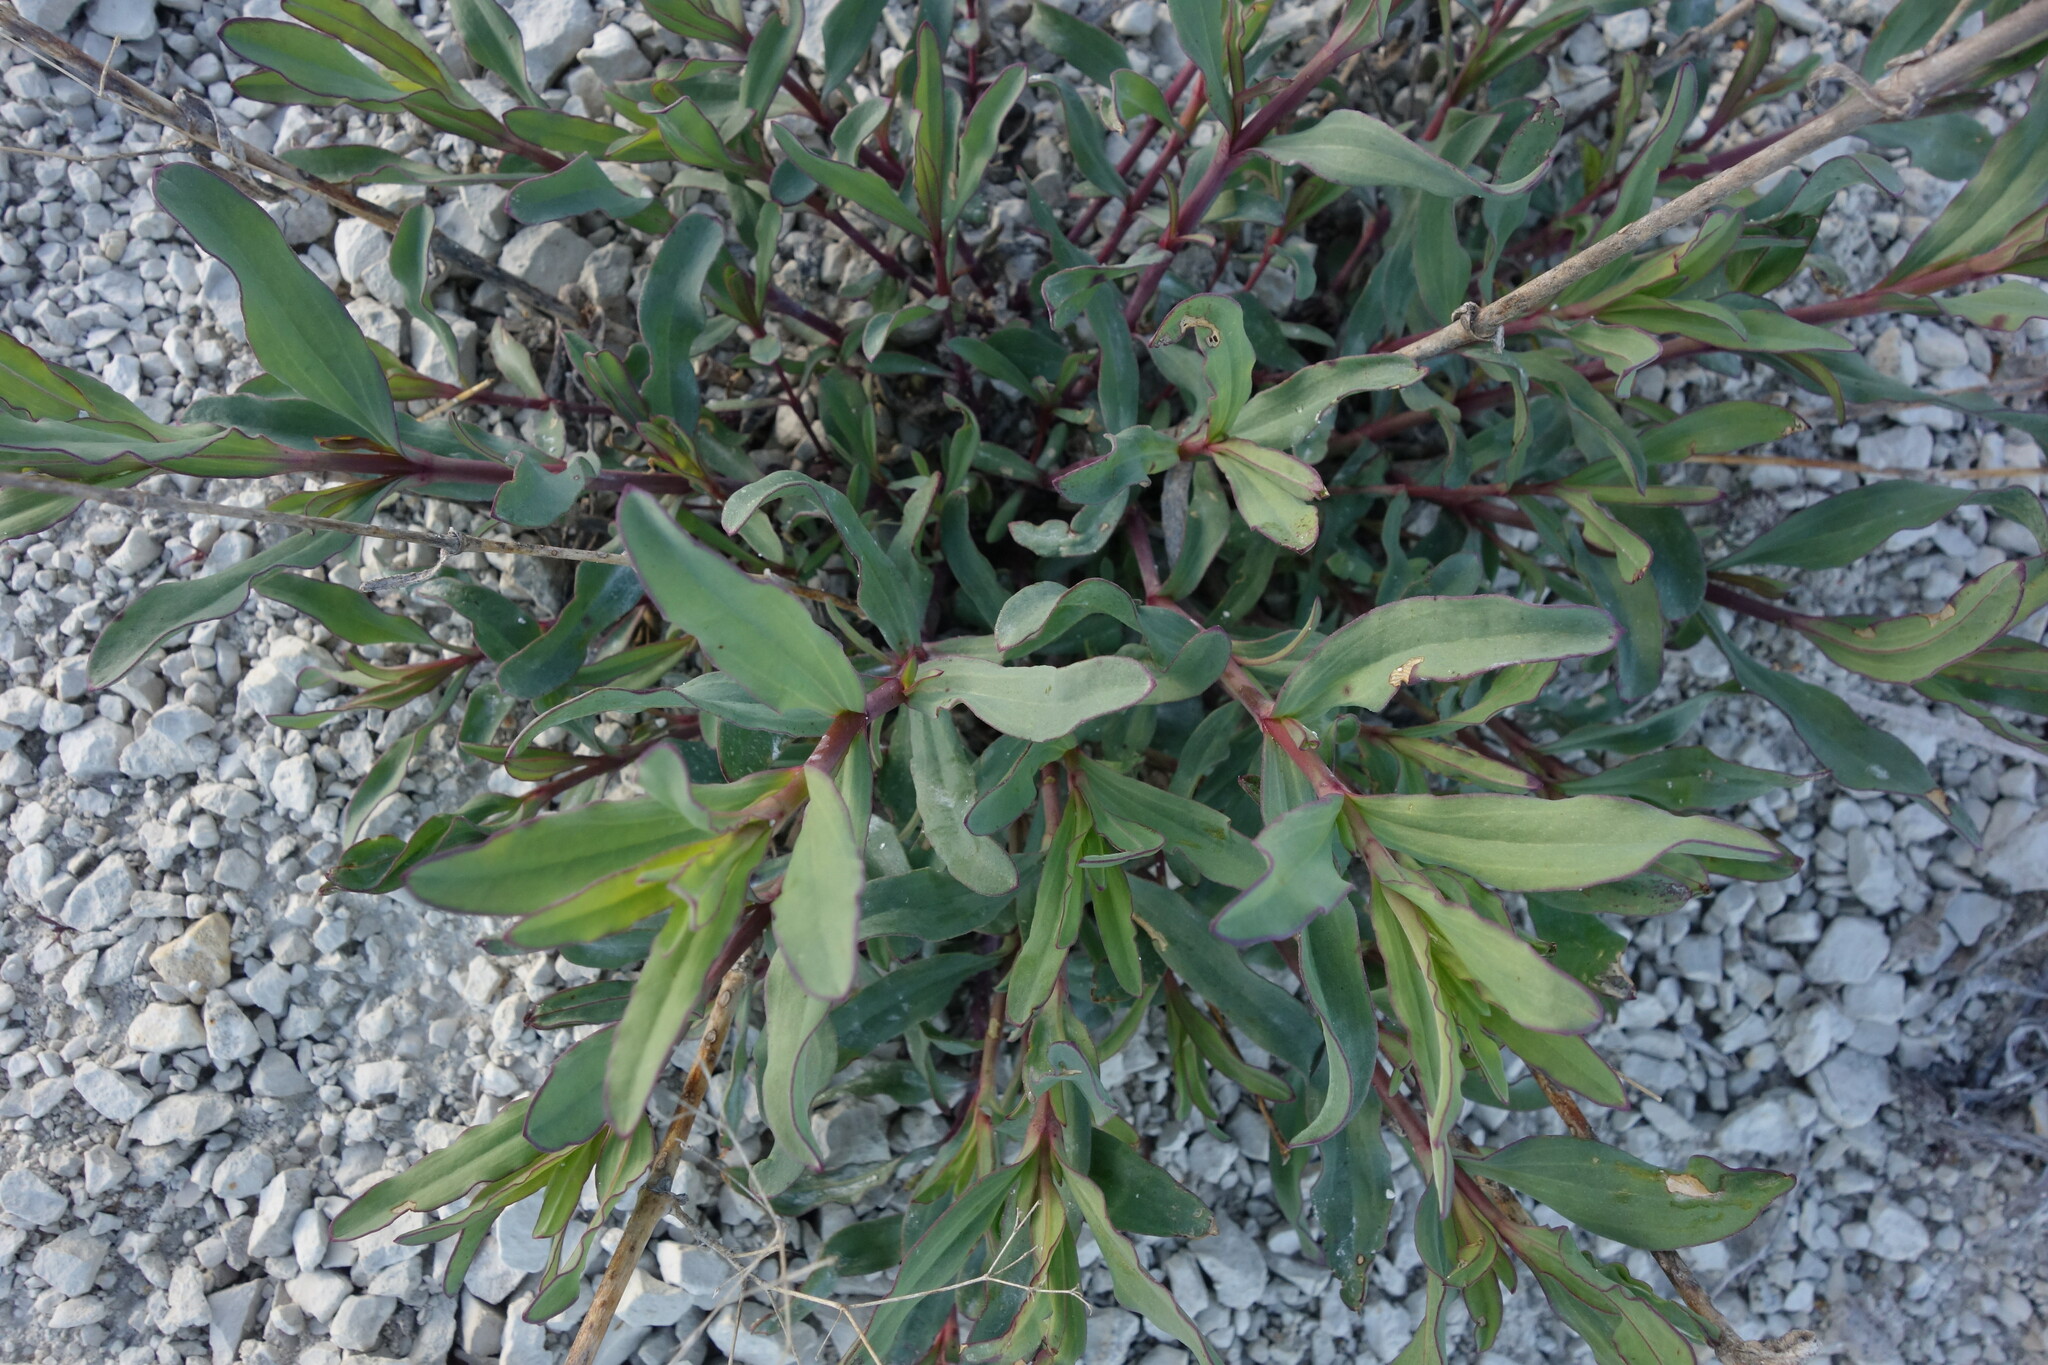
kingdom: Plantae
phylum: Tracheophyta
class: Magnoliopsida
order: Caryophyllales
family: Caryophyllaceae
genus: Gypsophila
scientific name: Gypsophila altissima
